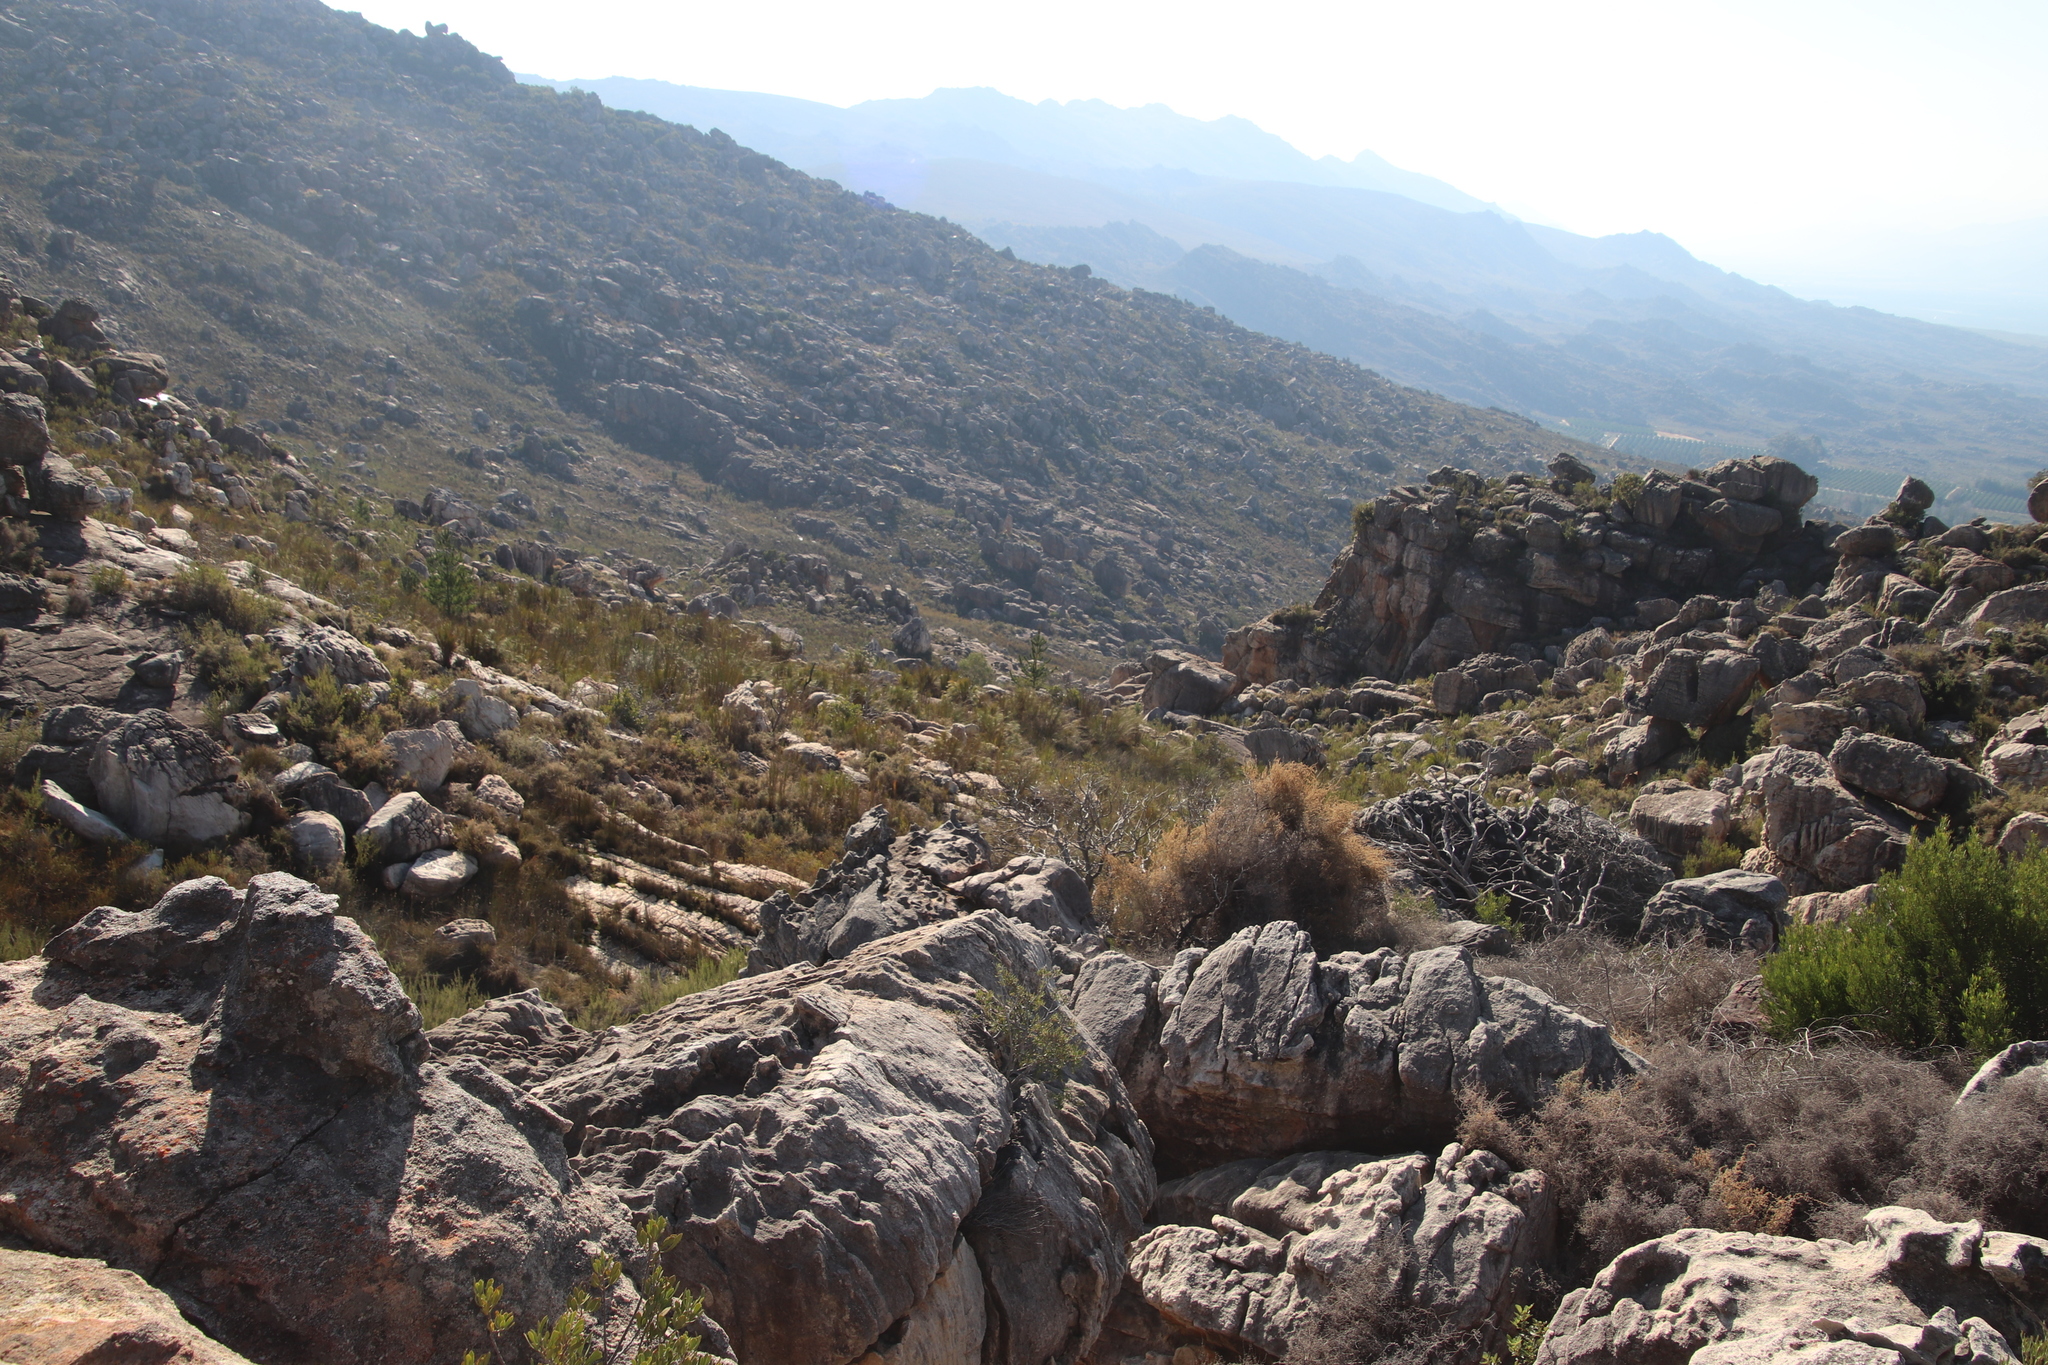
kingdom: Plantae
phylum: Tracheophyta
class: Pinopsida
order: Pinales
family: Pinaceae
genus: Pinus
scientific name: Pinus radiata
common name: Monterey pine
